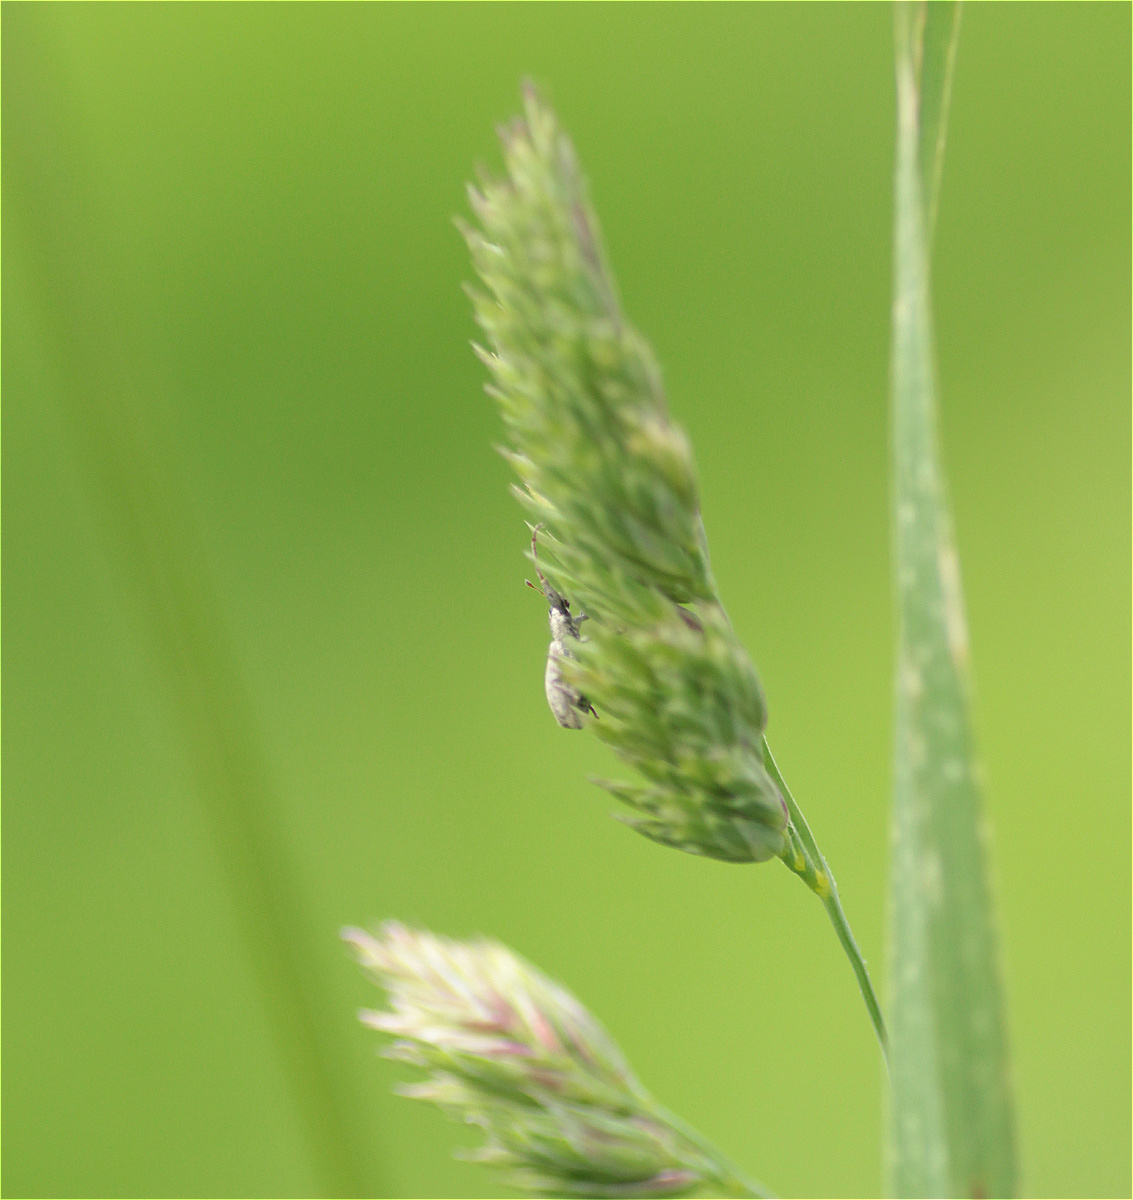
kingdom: Plantae
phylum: Tracheophyta
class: Liliopsida
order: Poales
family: Poaceae
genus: Dactylis
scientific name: Dactylis glomerata
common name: Orchardgrass
